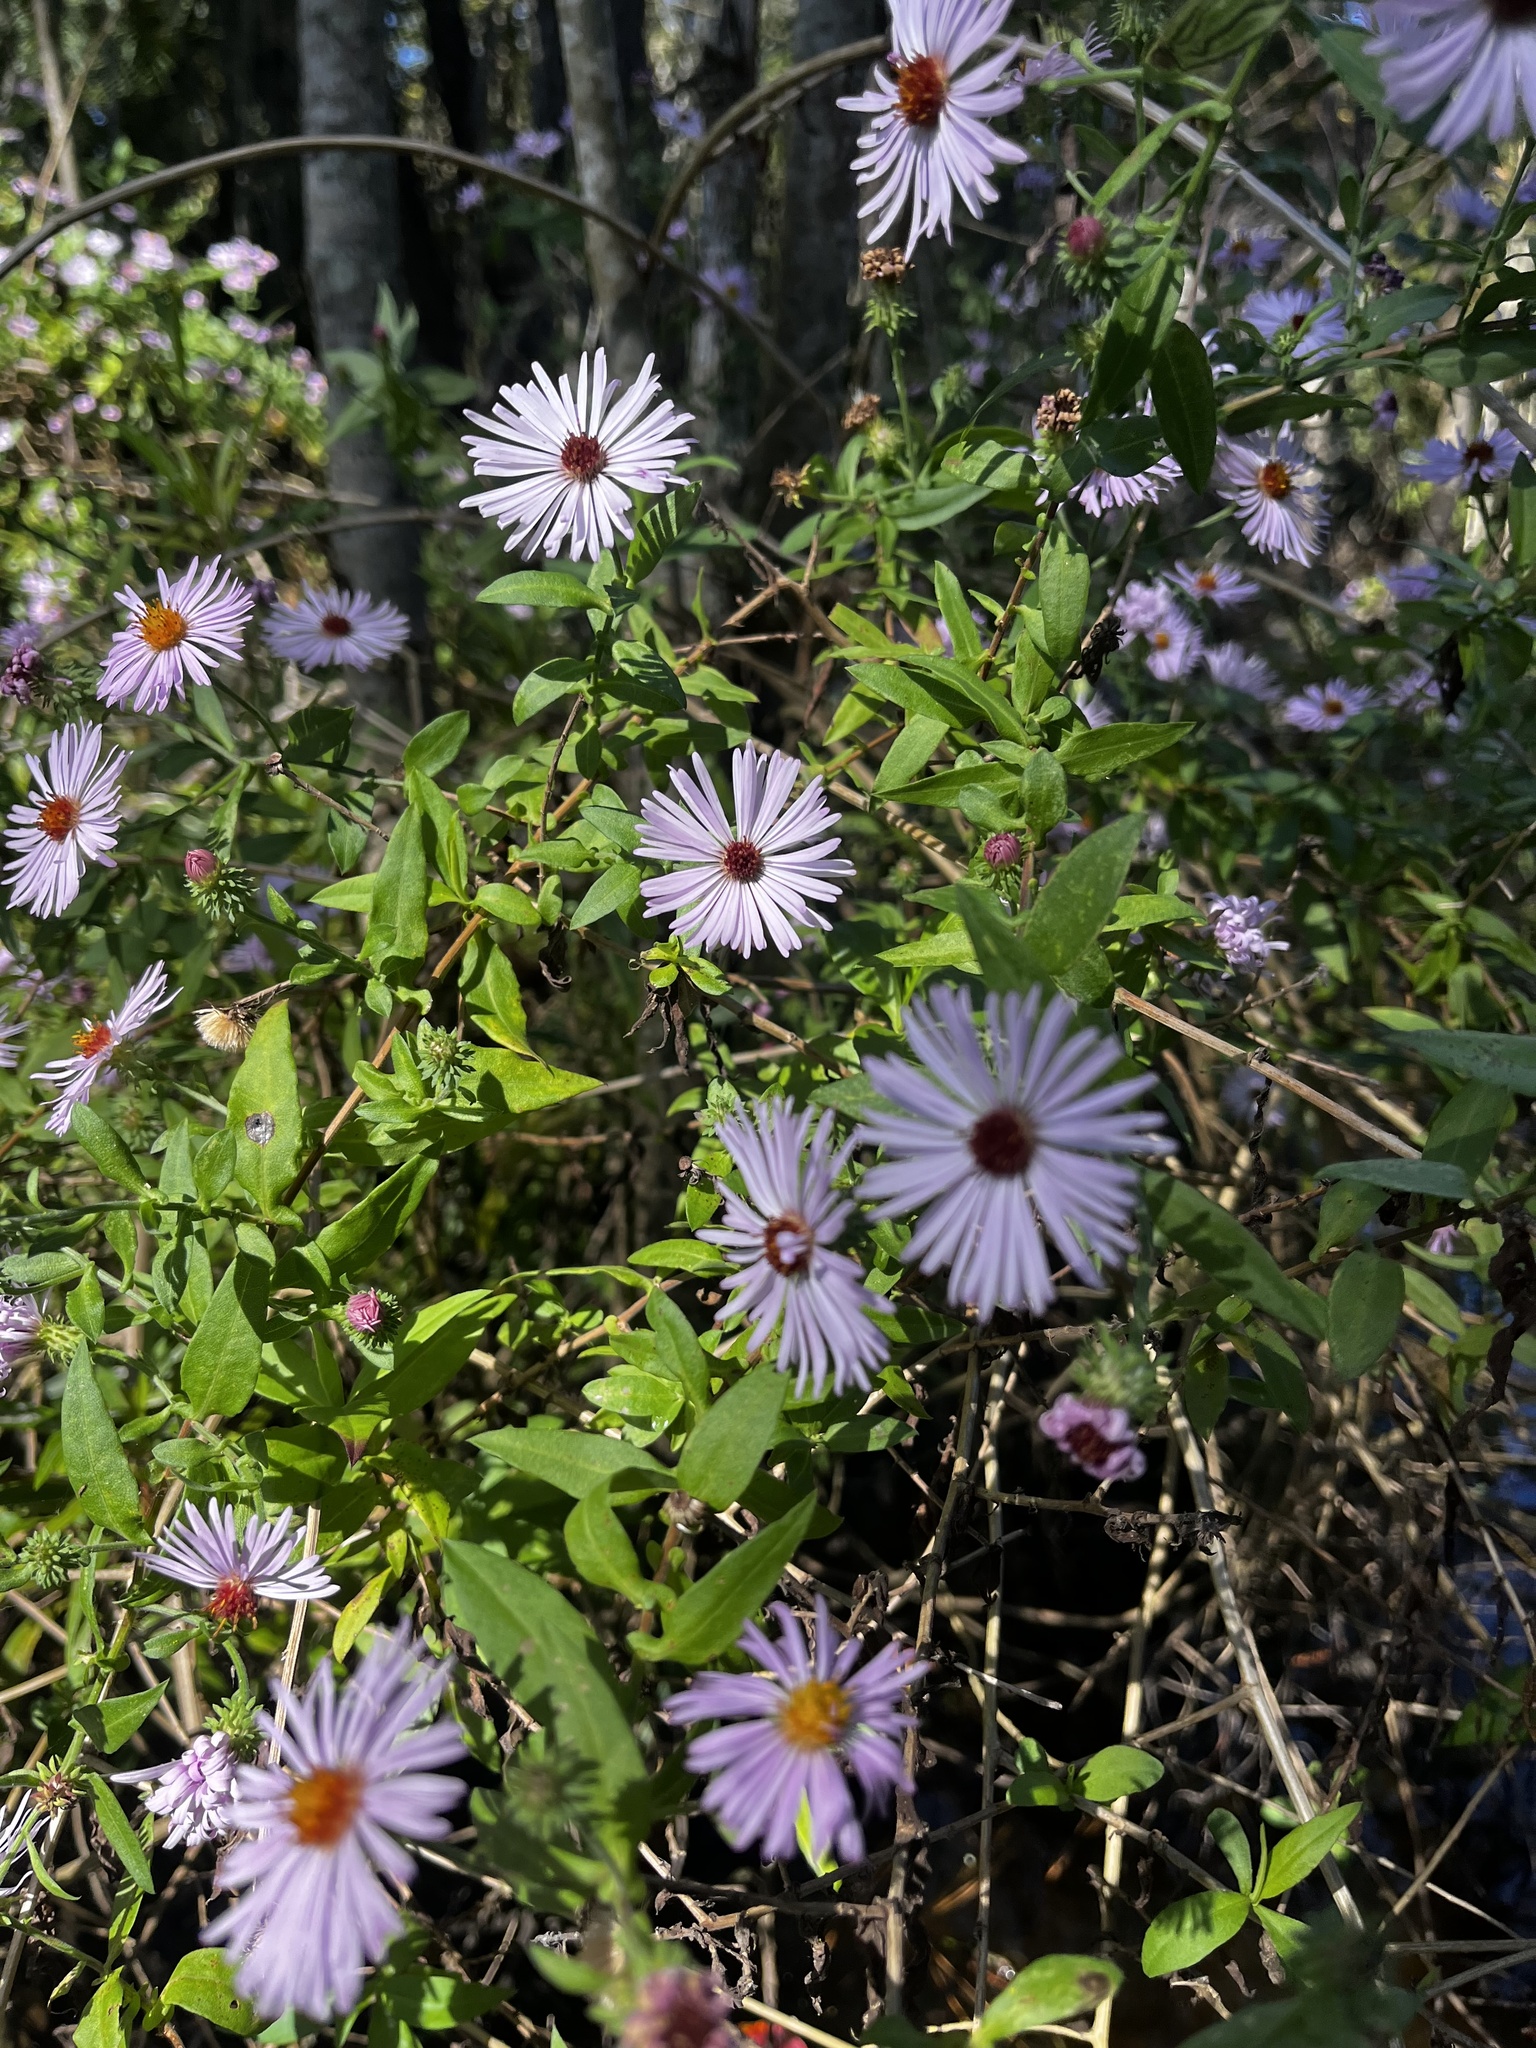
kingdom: Plantae
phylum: Tracheophyta
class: Magnoliopsida
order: Asterales
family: Asteraceae
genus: Ampelaster
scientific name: Ampelaster carolinianus
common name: Climbing aster
